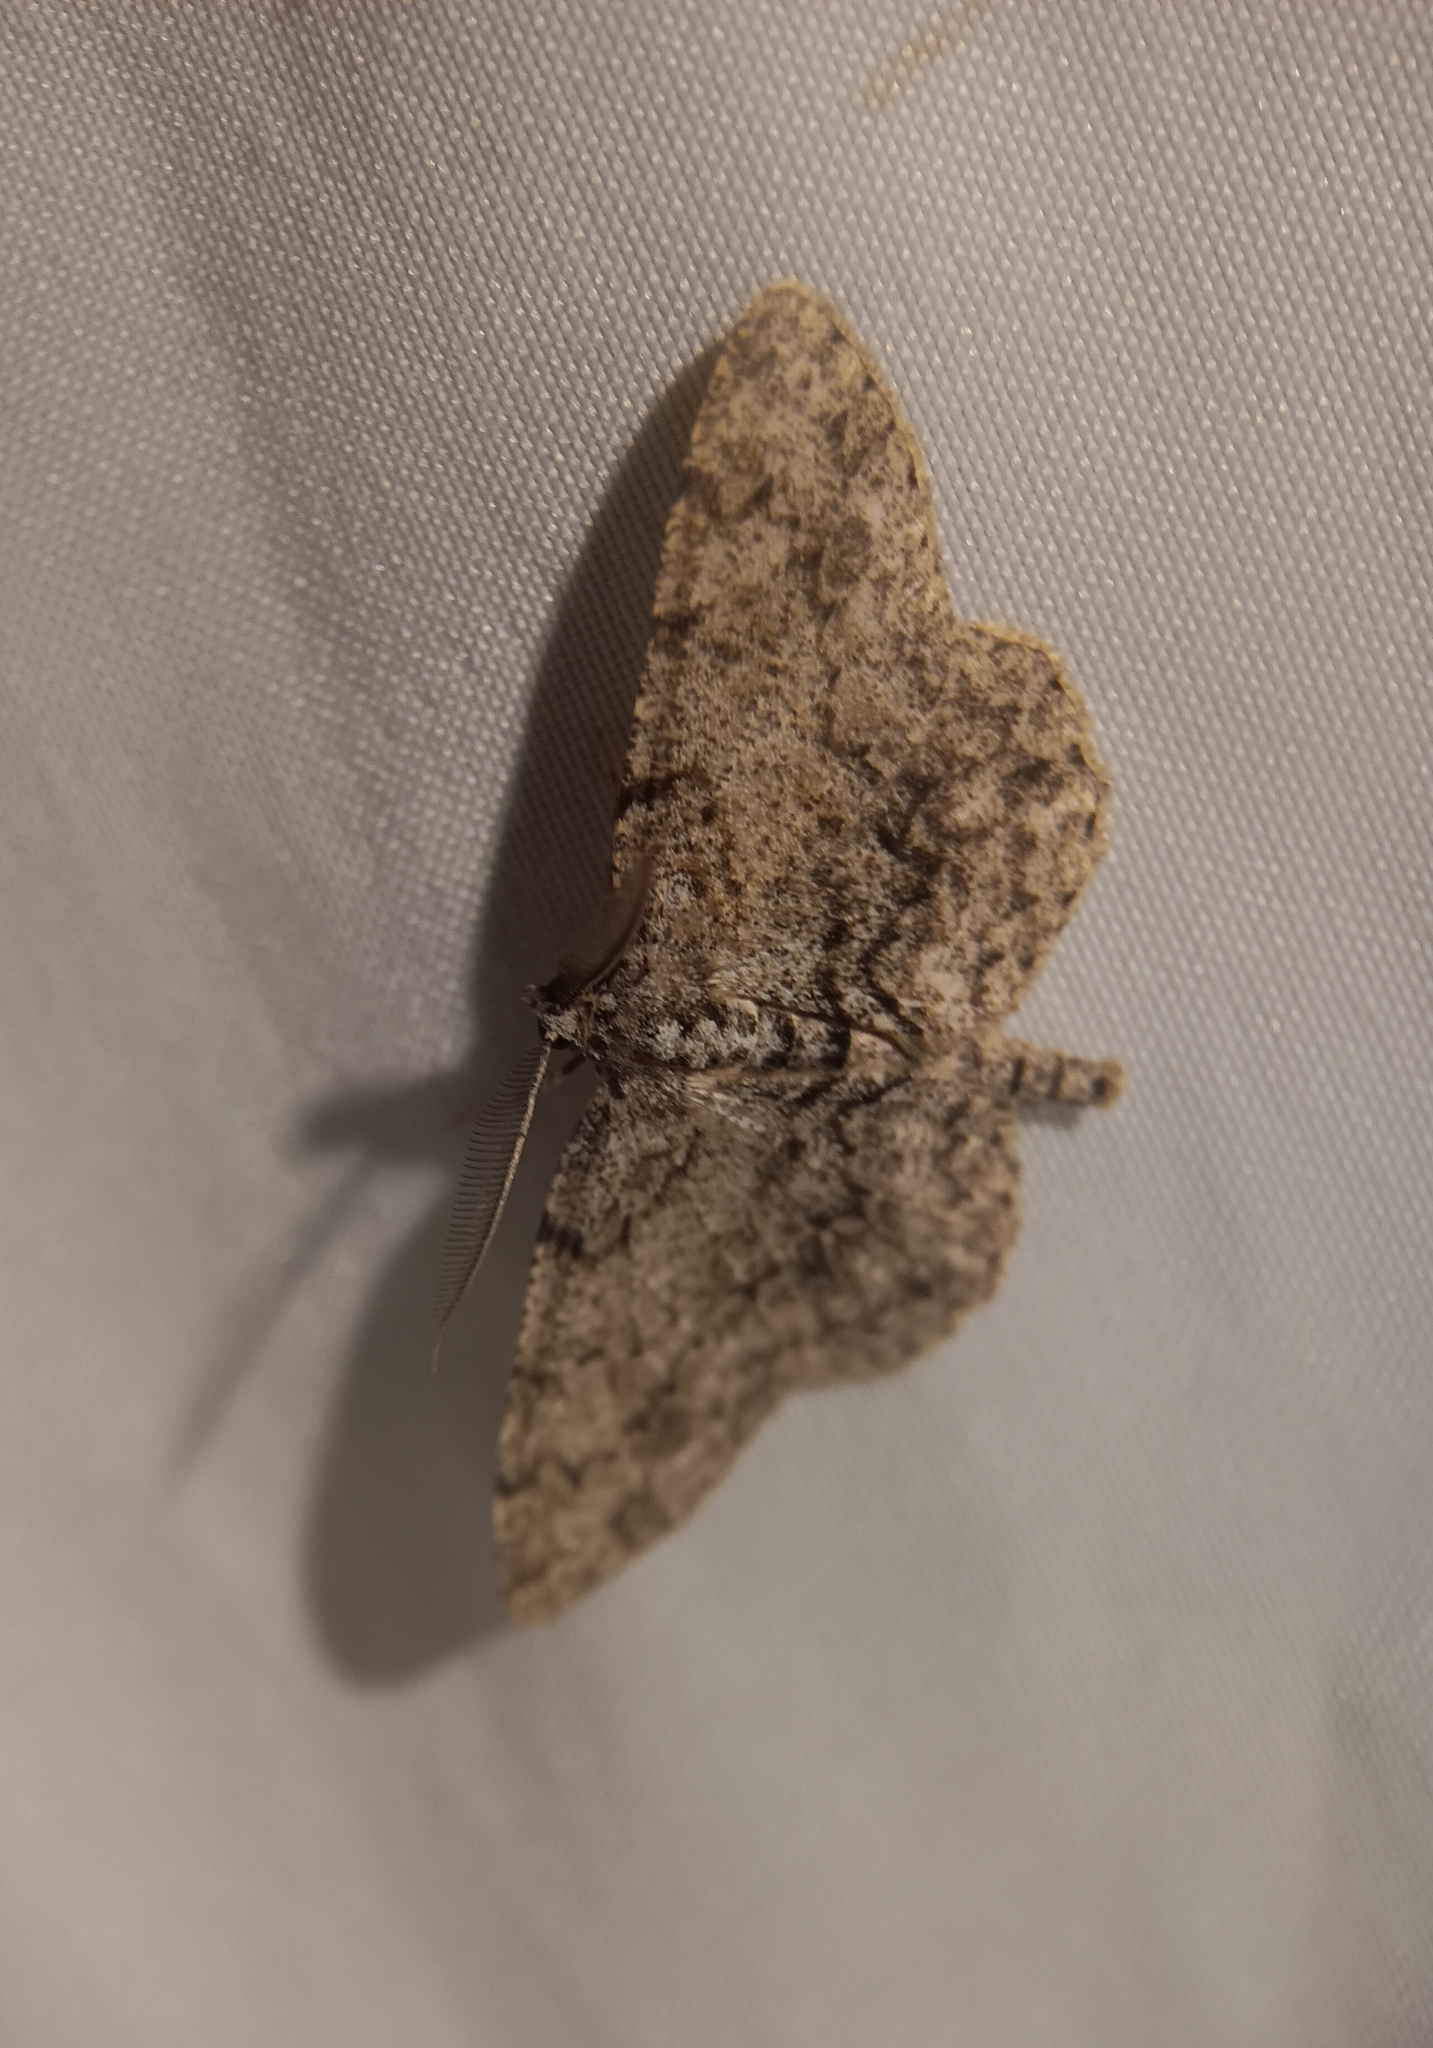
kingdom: Animalia
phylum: Arthropoda
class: Insecta
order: Lepidoptera
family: Geometridae
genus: Protoboarmia
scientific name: Protoboarmia porcelaria
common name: Porcelain gray
